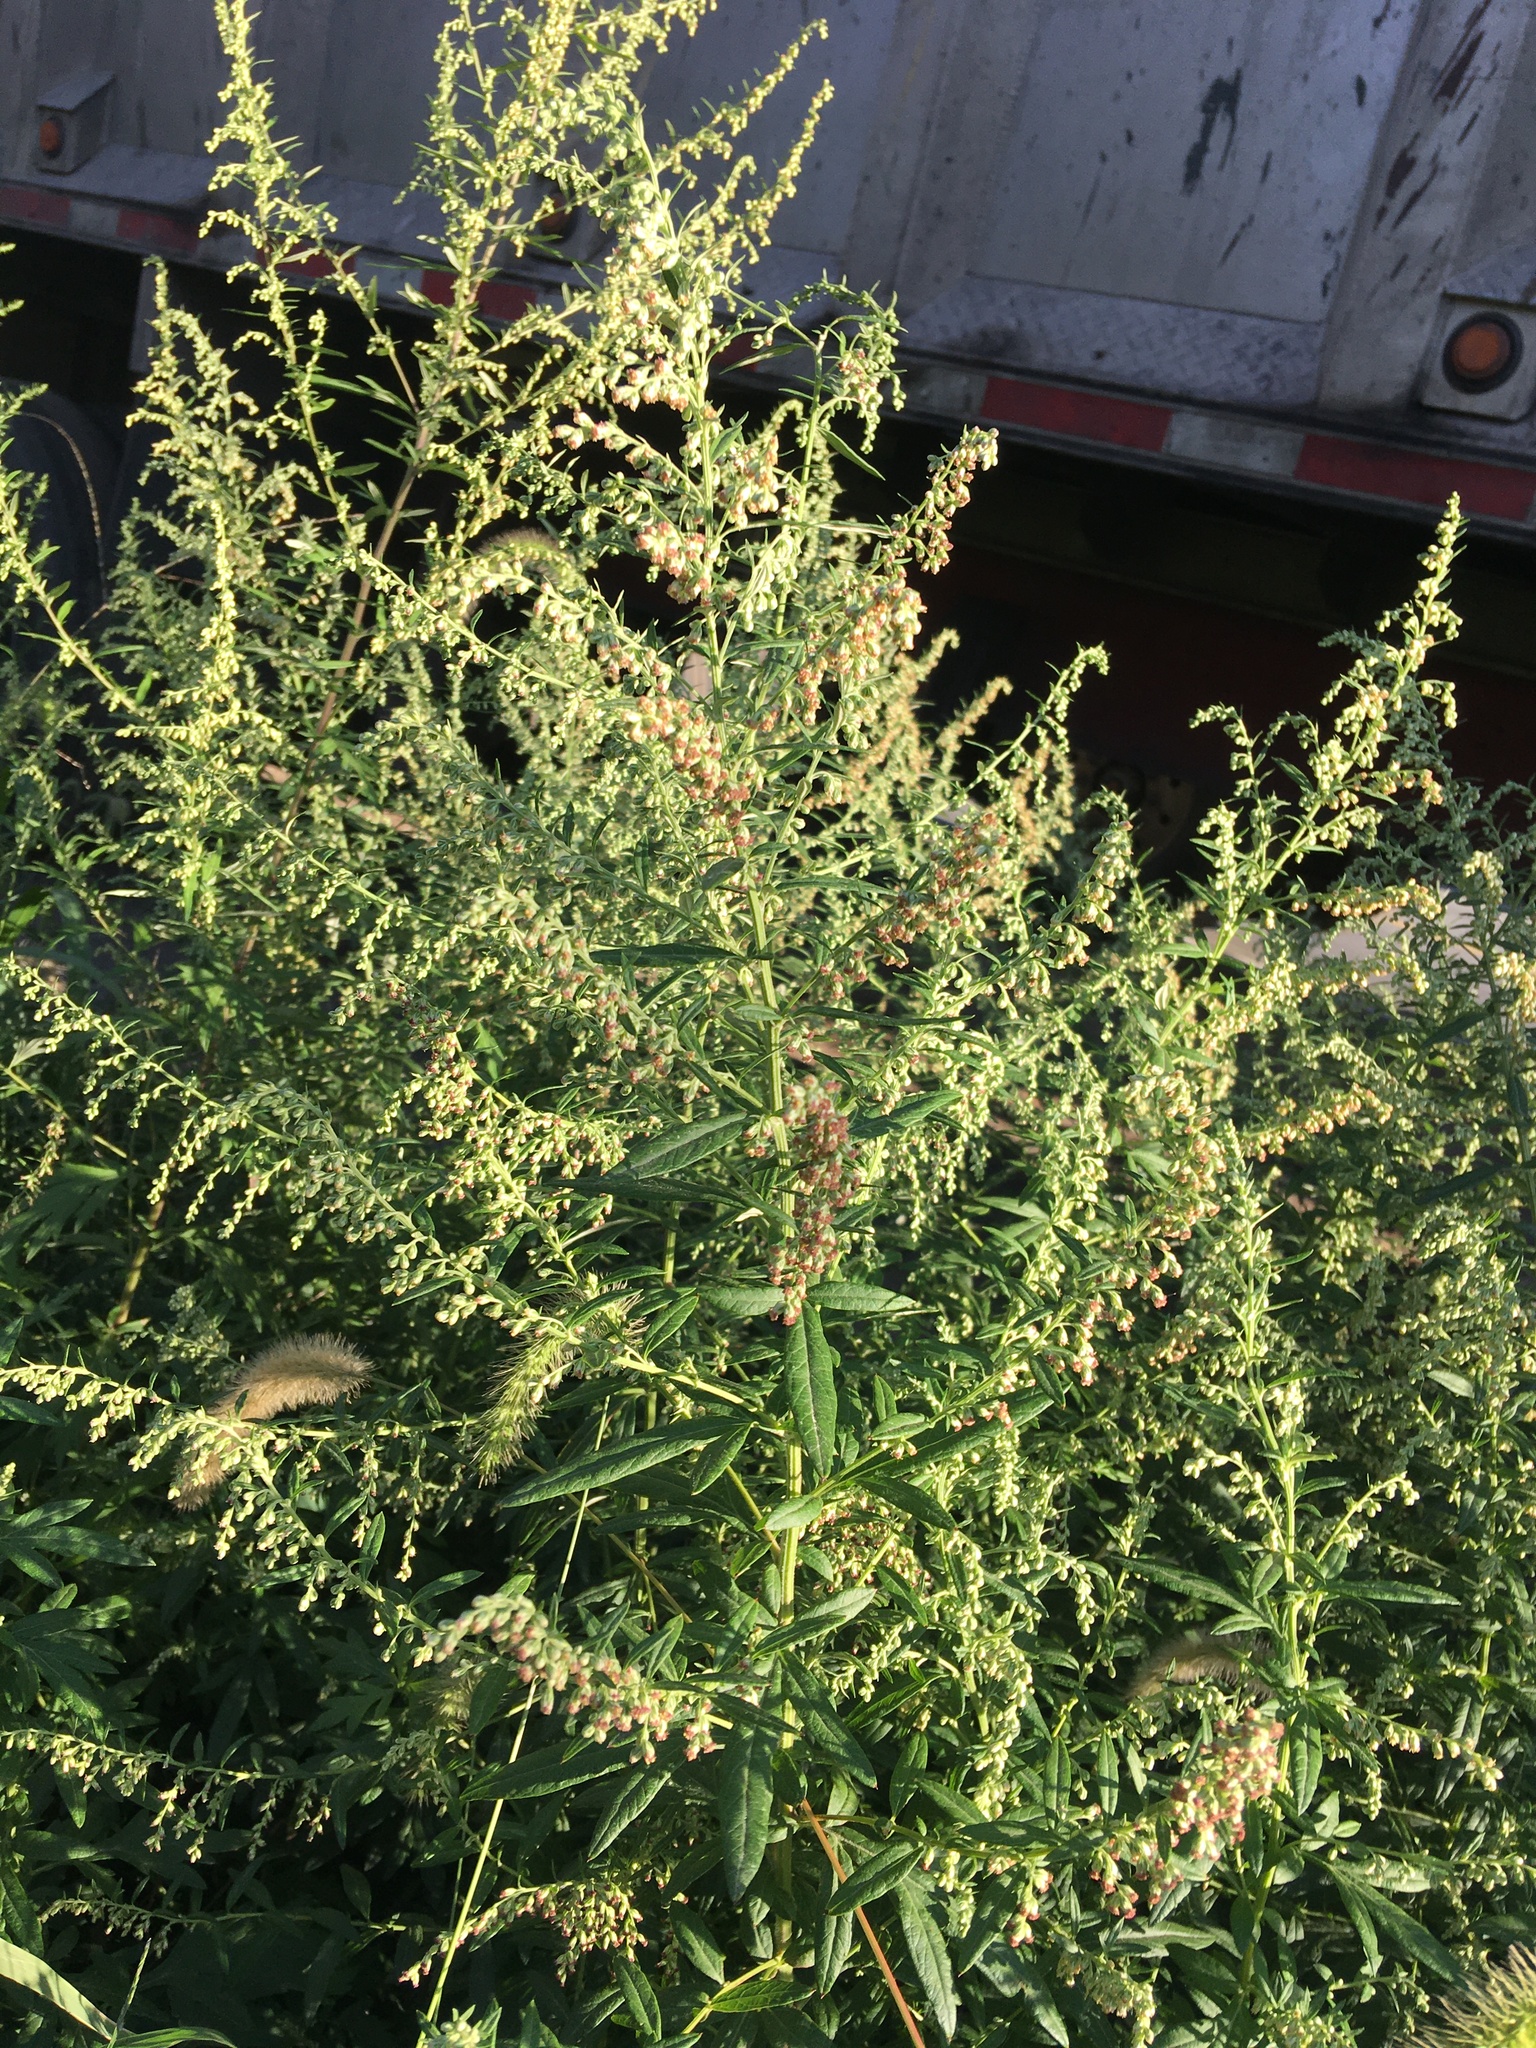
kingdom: Plantae
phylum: Tracheophyta
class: Magnoliopsida
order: Asterales
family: Asteraceae
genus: Artemisia
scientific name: Artemisia vulgaris
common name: Mugwort
